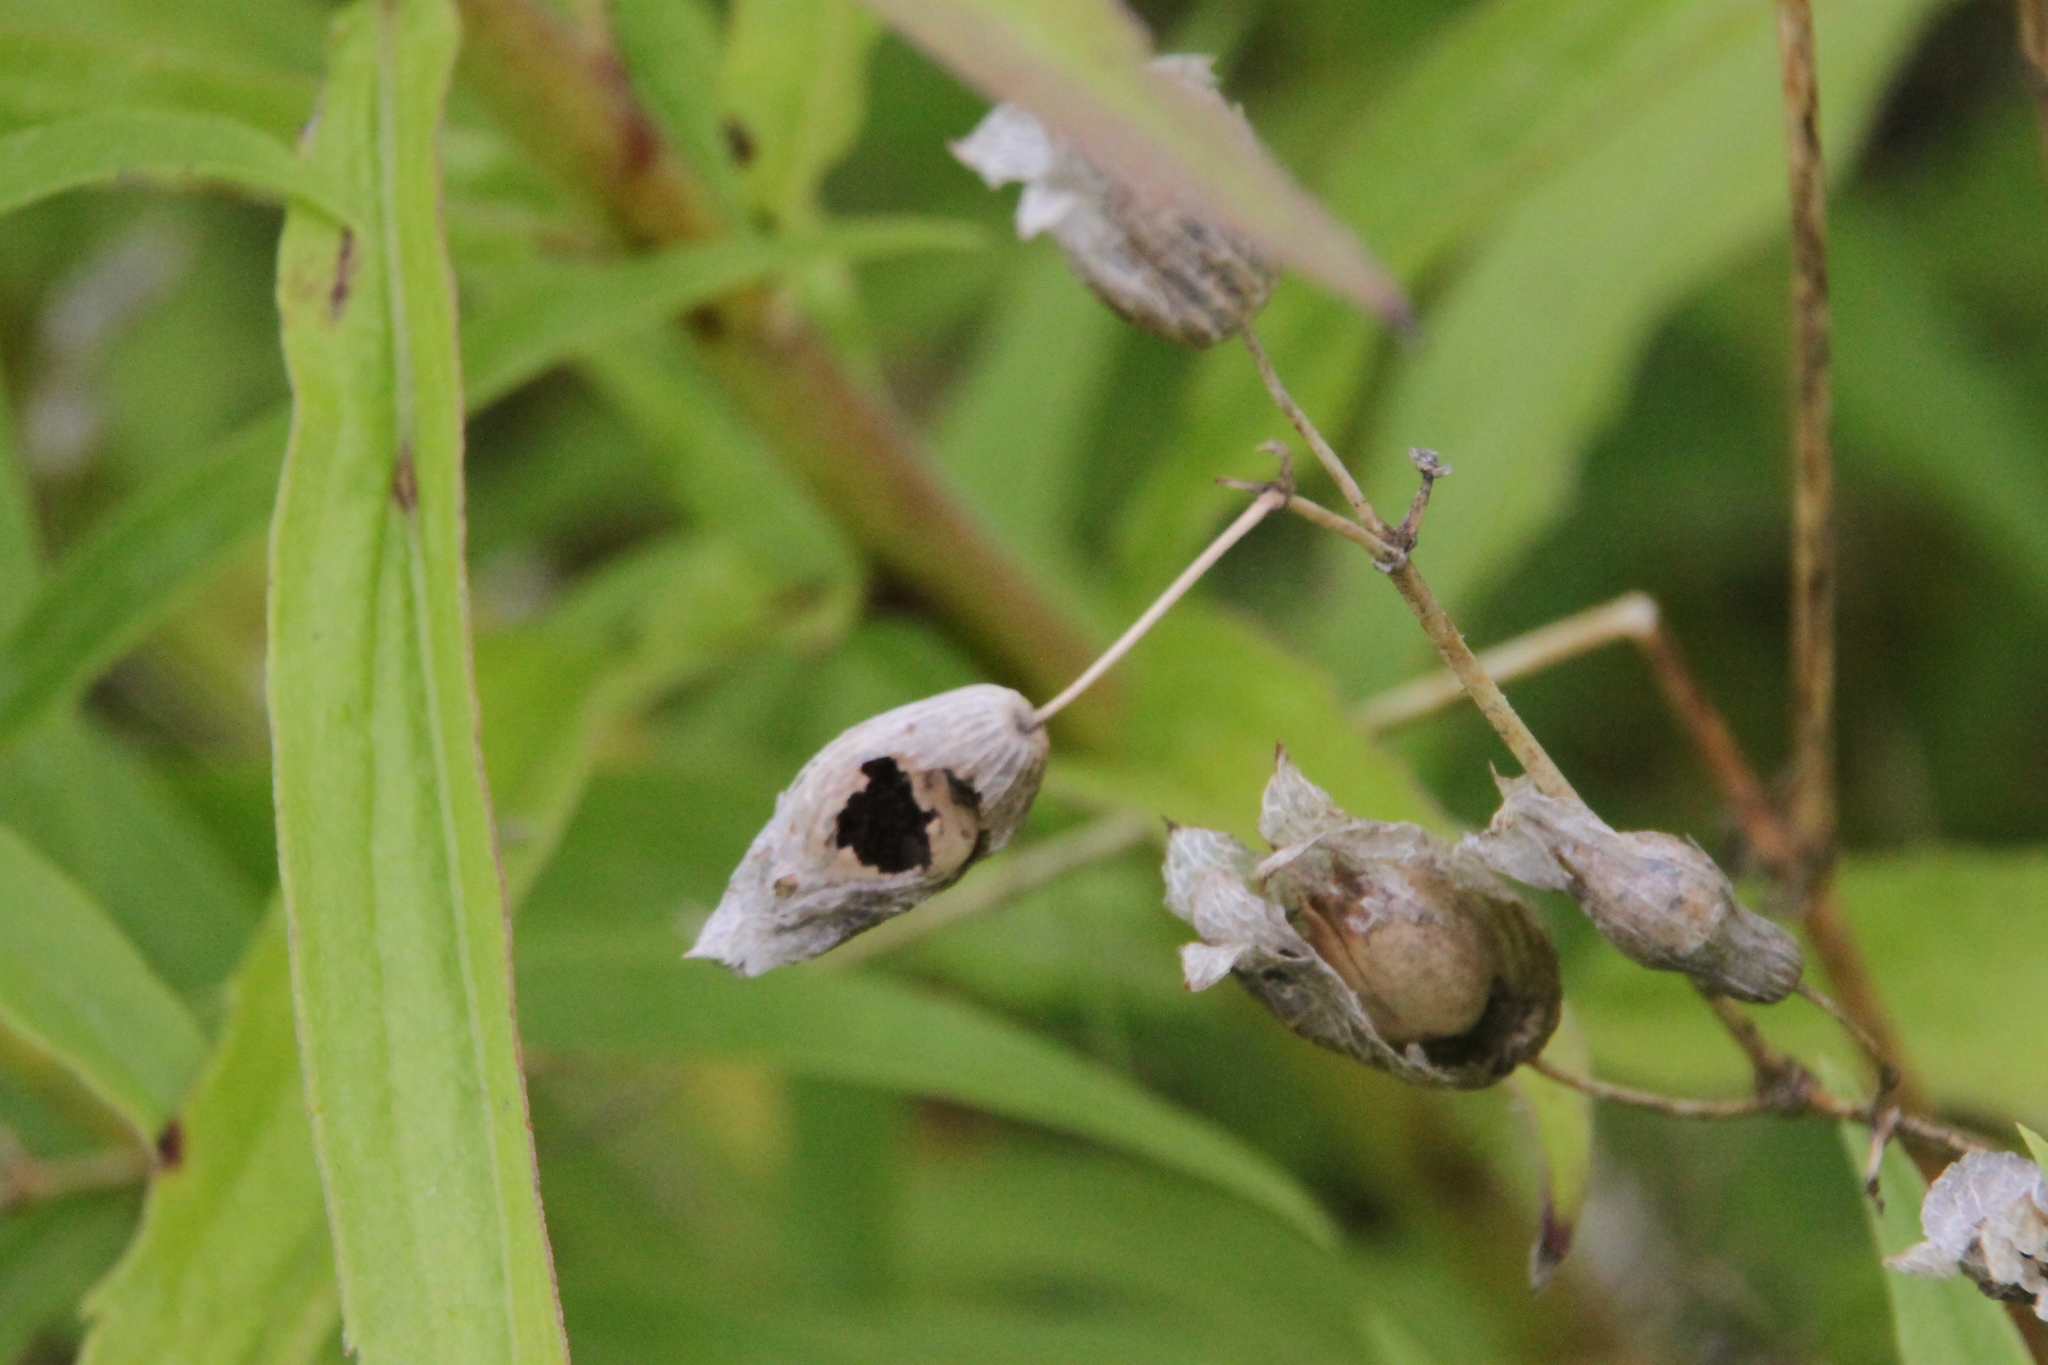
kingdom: Plantae
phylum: Tracheophyta
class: Magnoliopsida
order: Caryophyllales
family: Caryophyllaceae
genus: Silene
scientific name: Silene vulgaris
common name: Bladder campion
